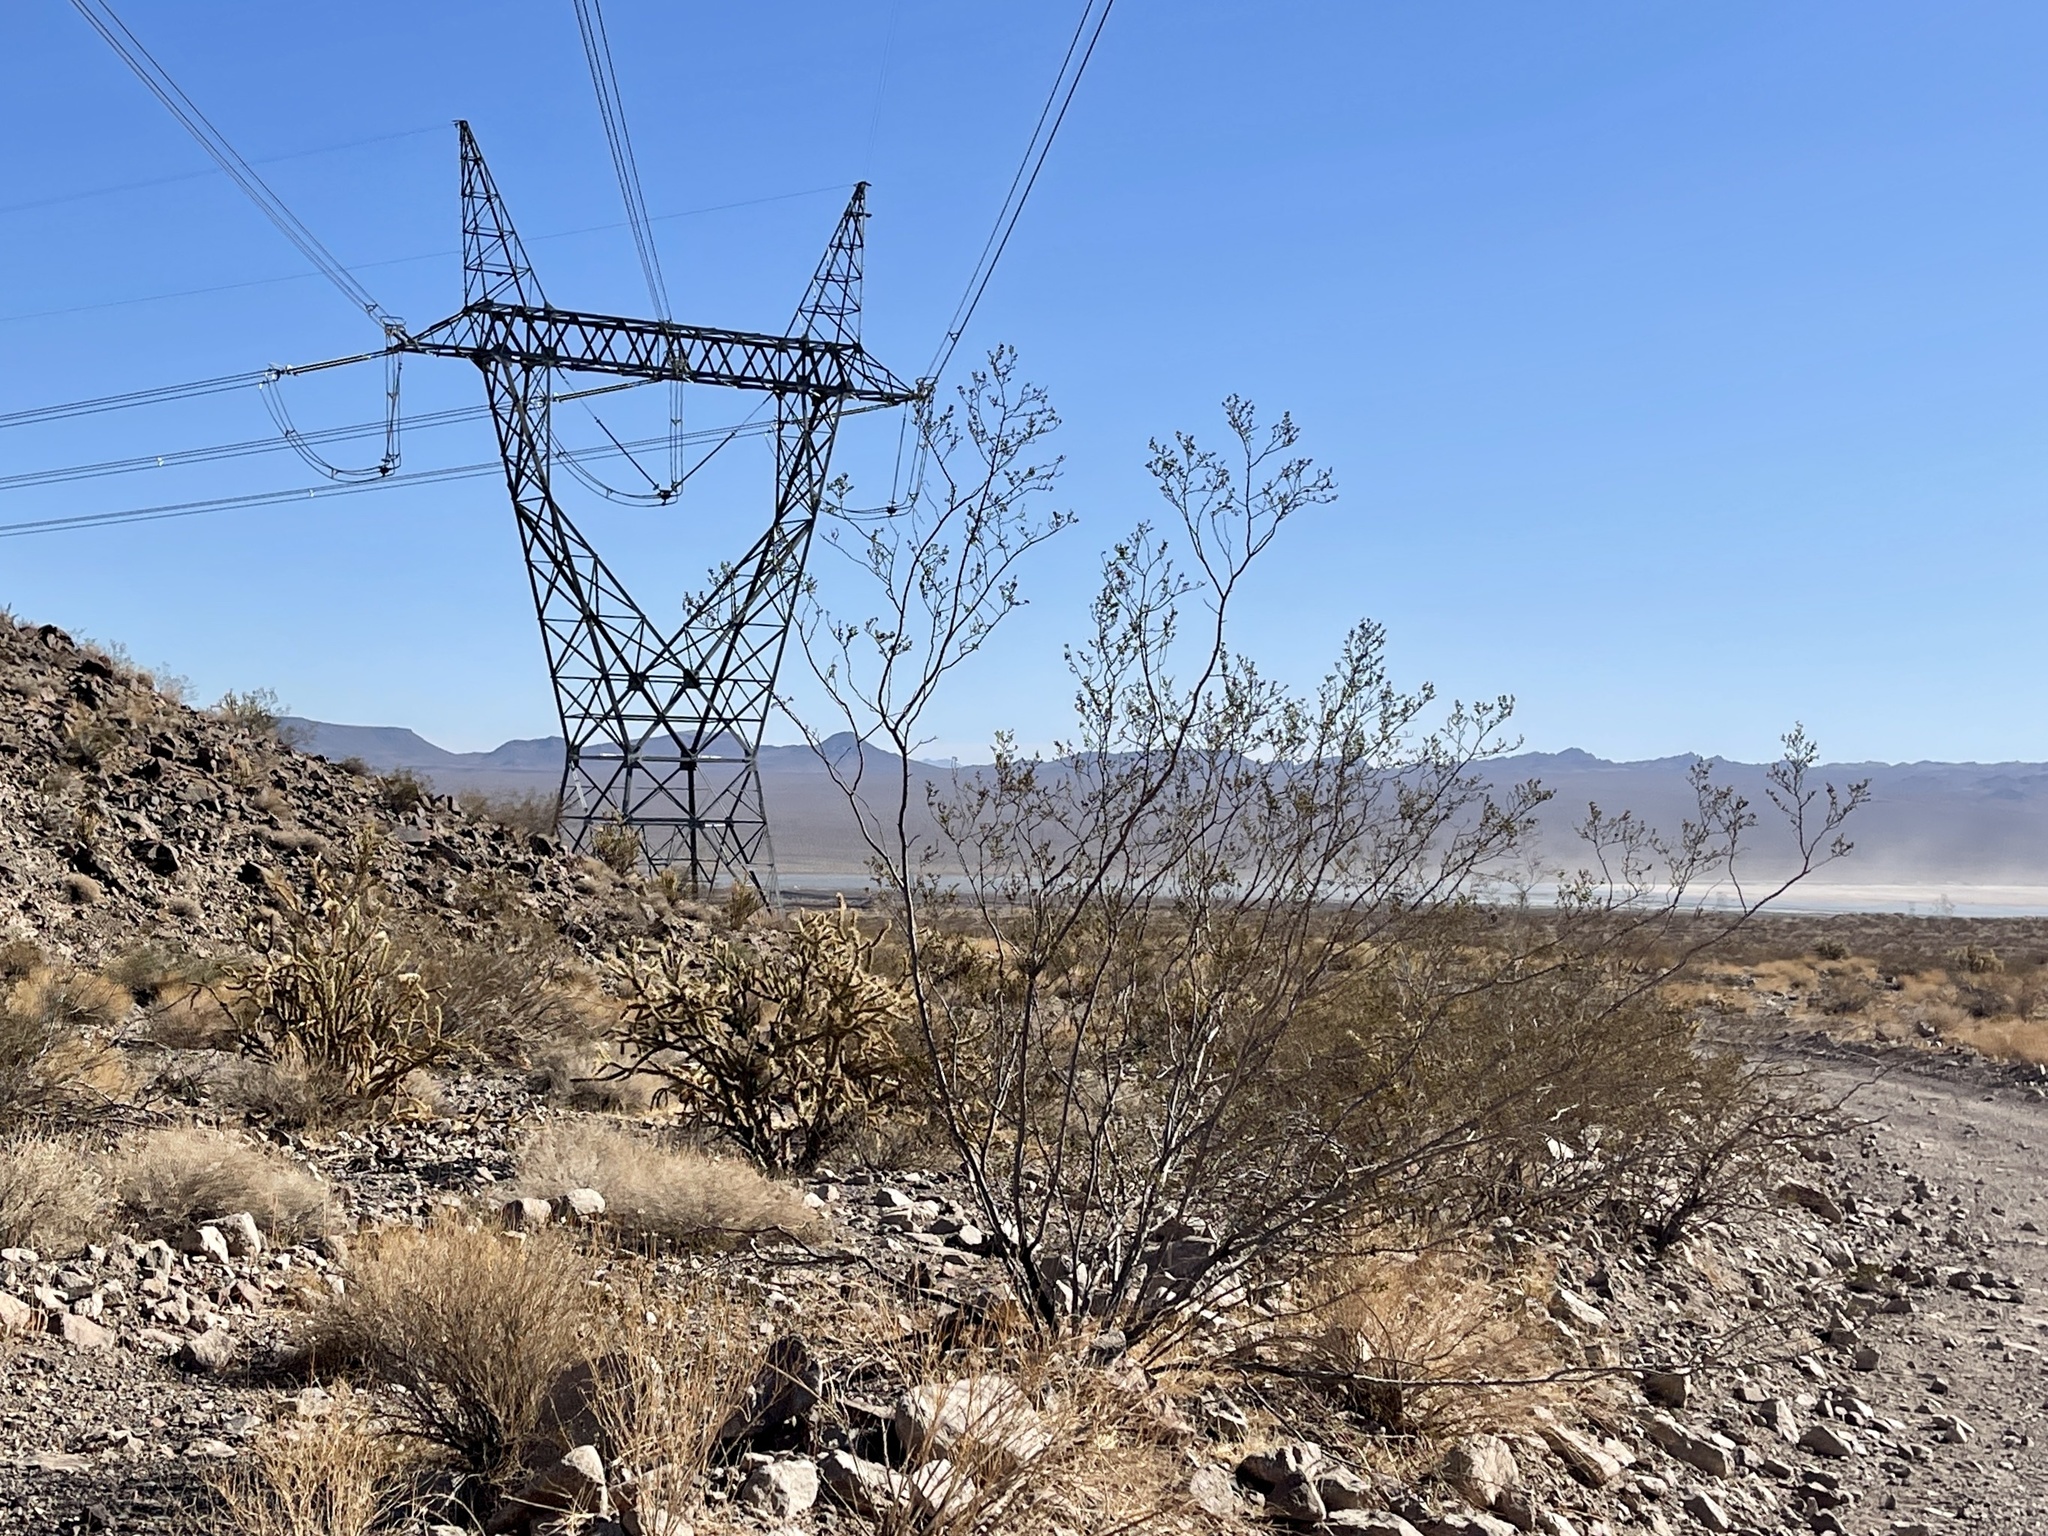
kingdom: Plantae
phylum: Tracheophyta
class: Magnoliopsida
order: Zygophyllales
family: Zygophyllaceae
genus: Larrea
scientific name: Larrea tridentata
